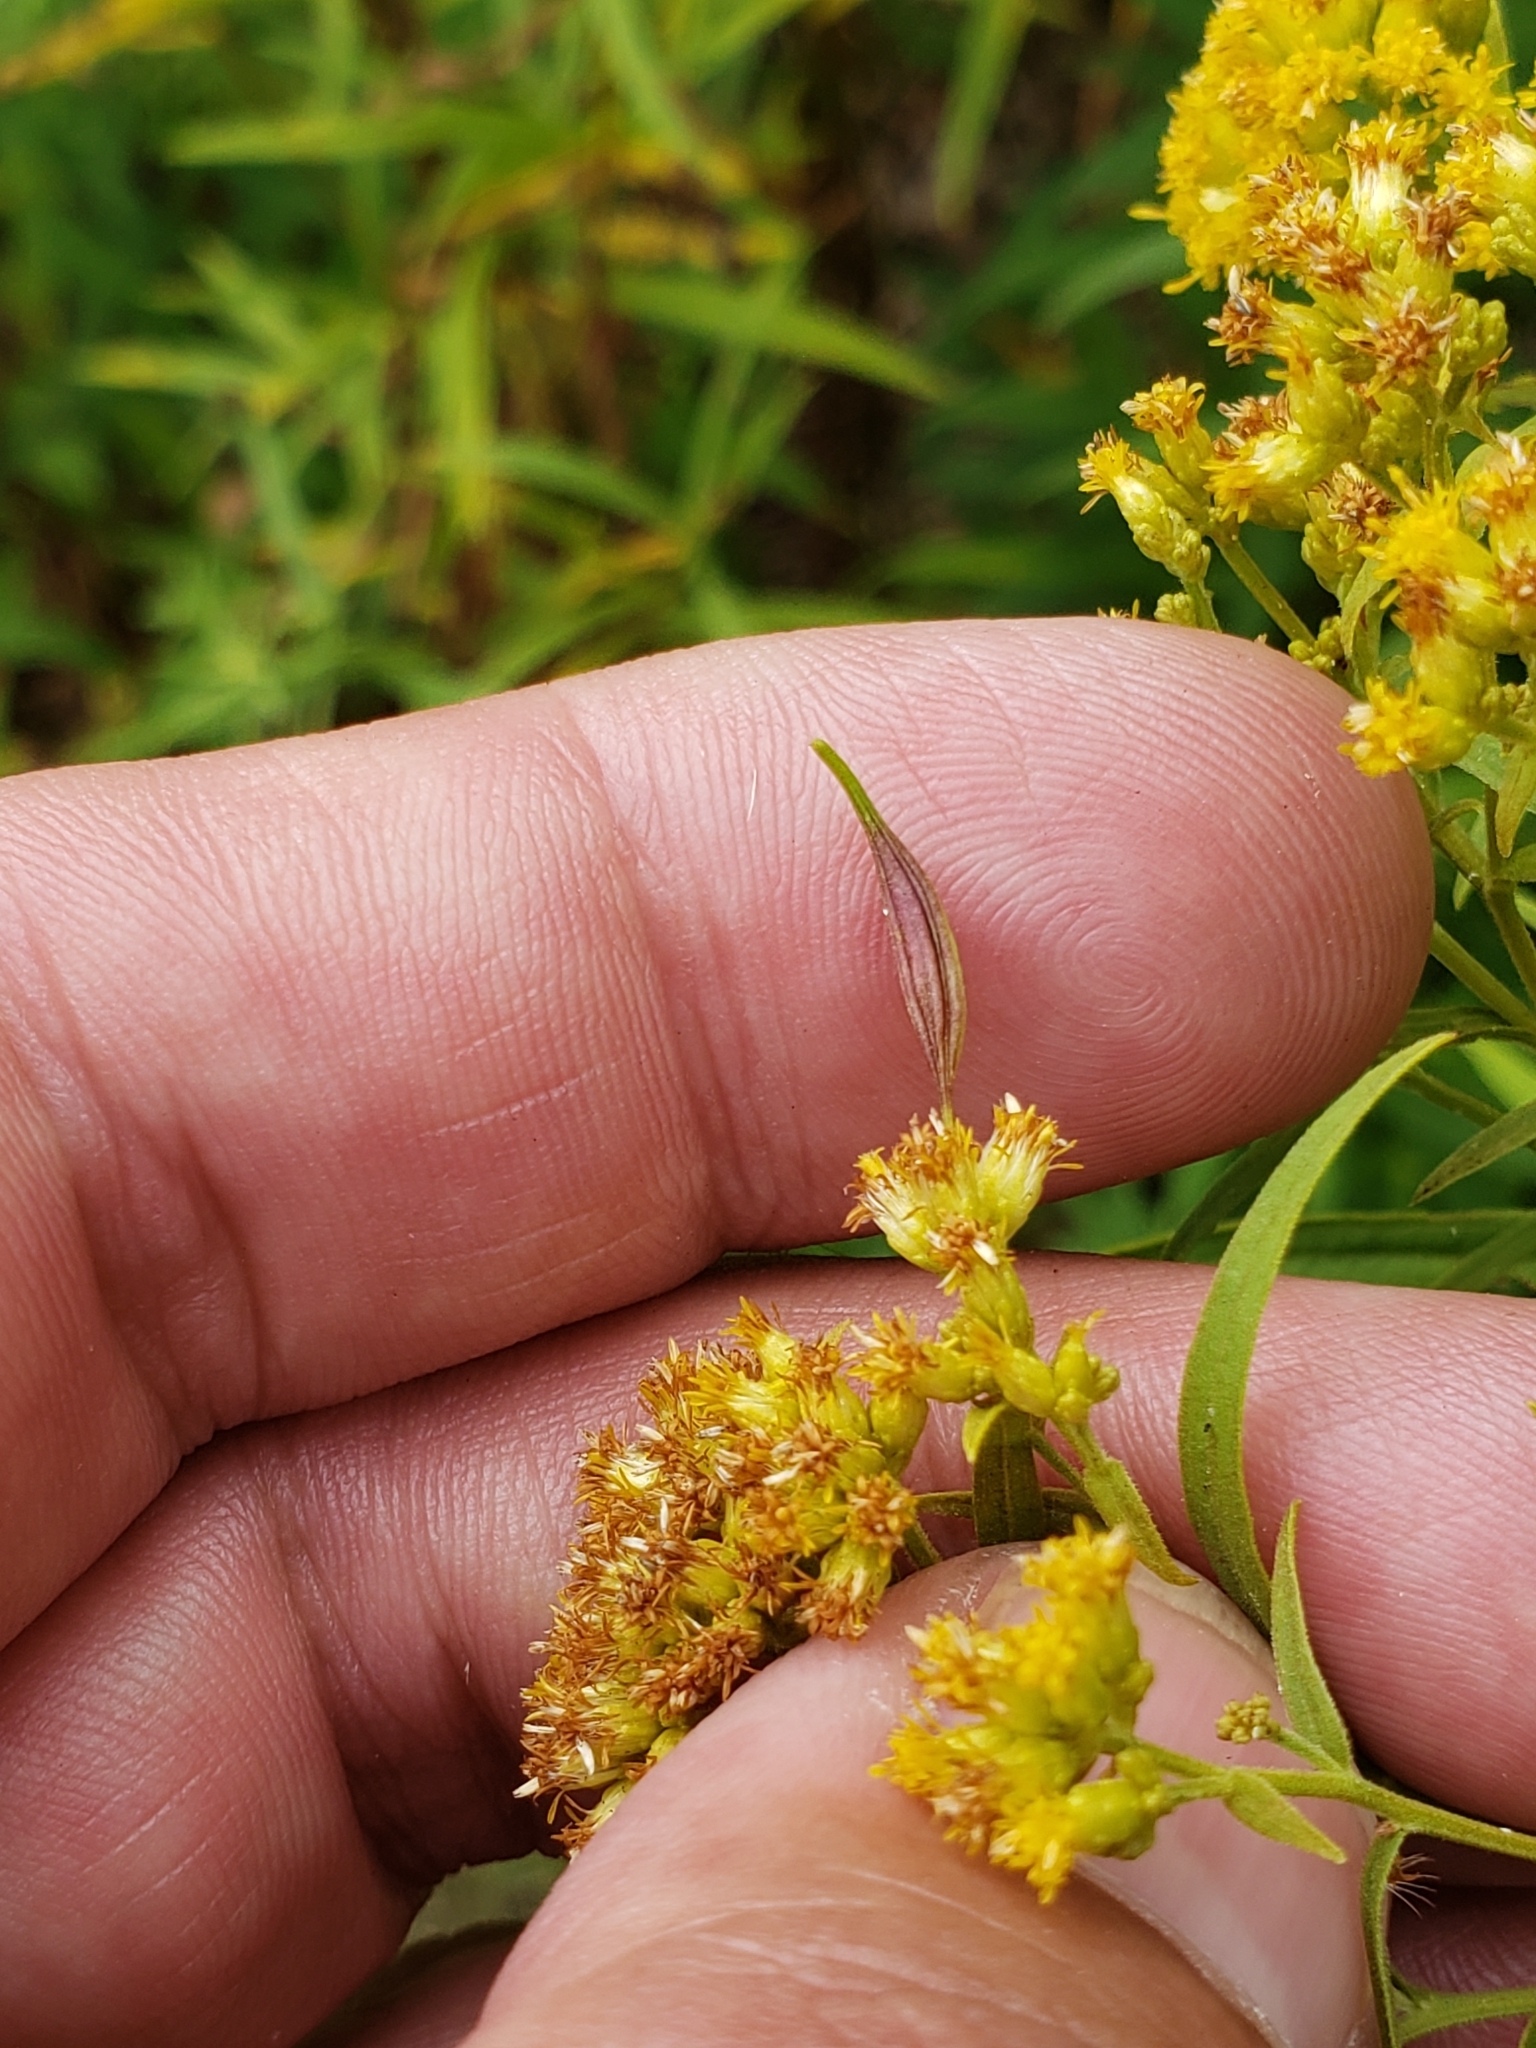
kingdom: Animalia
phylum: Arthropoda
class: Insecta
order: Diptera
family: Cecidomyiidae
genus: Rhopalomyia
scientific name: Rhopalomyia pedicellata
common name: Goldentop pedicellate gall midge
